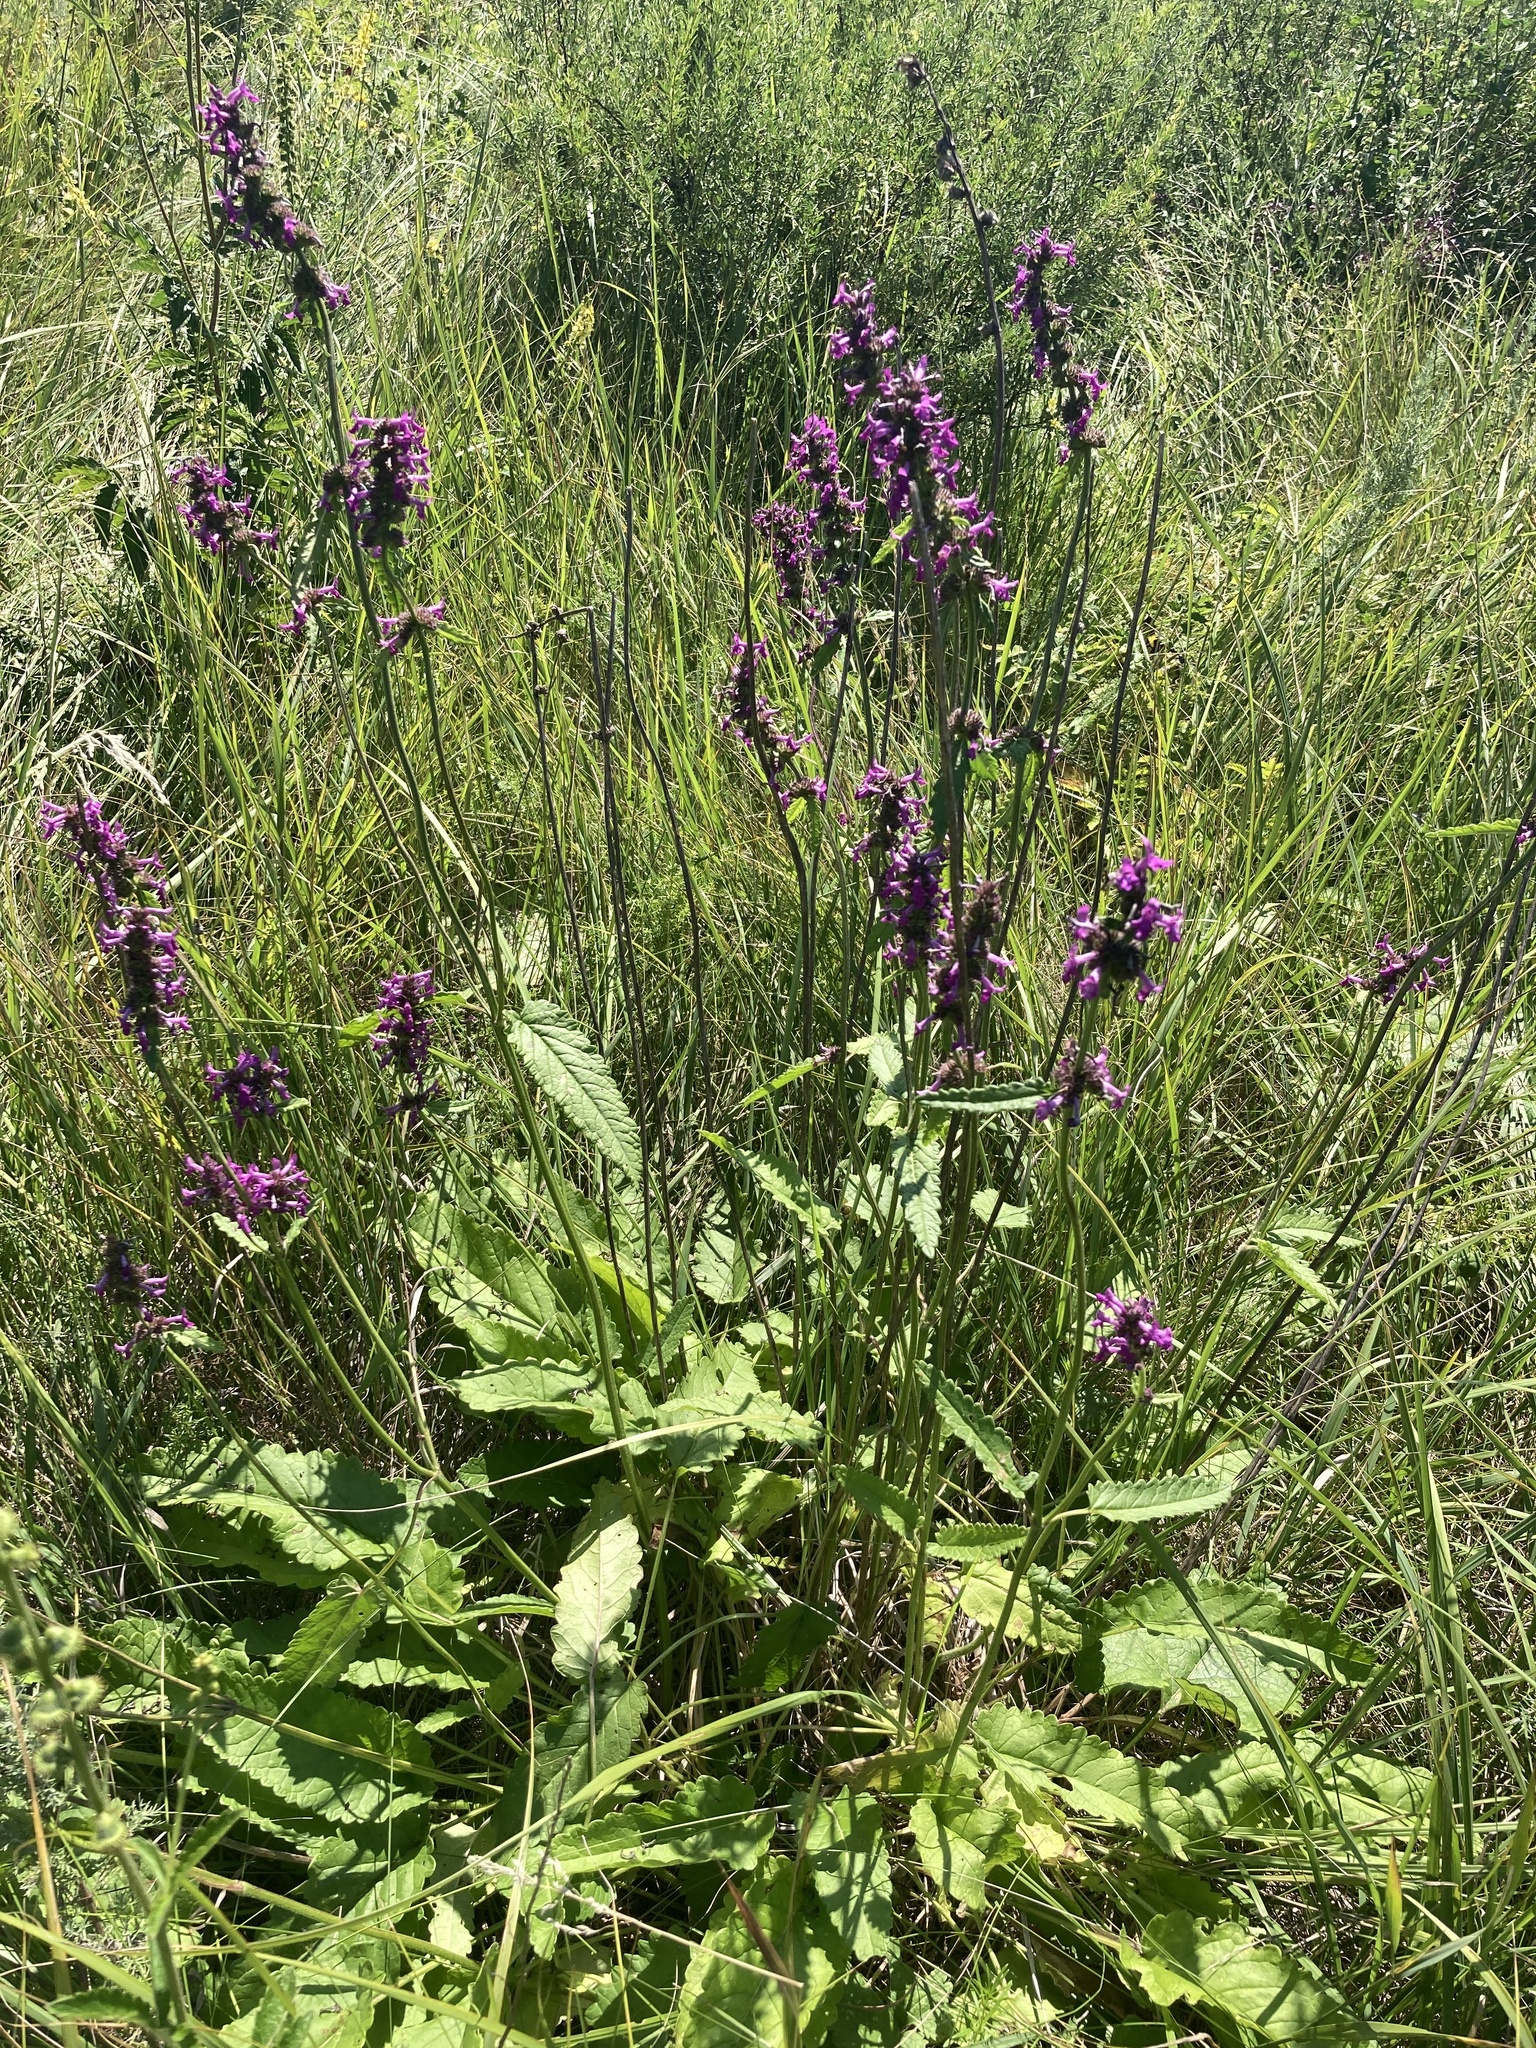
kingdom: Plantae
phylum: Tracheophyta
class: Magnoliopsida
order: Lamiales
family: Lamiaceae
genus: Betonica
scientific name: Betonica officinalis
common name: Bishop's-wort
